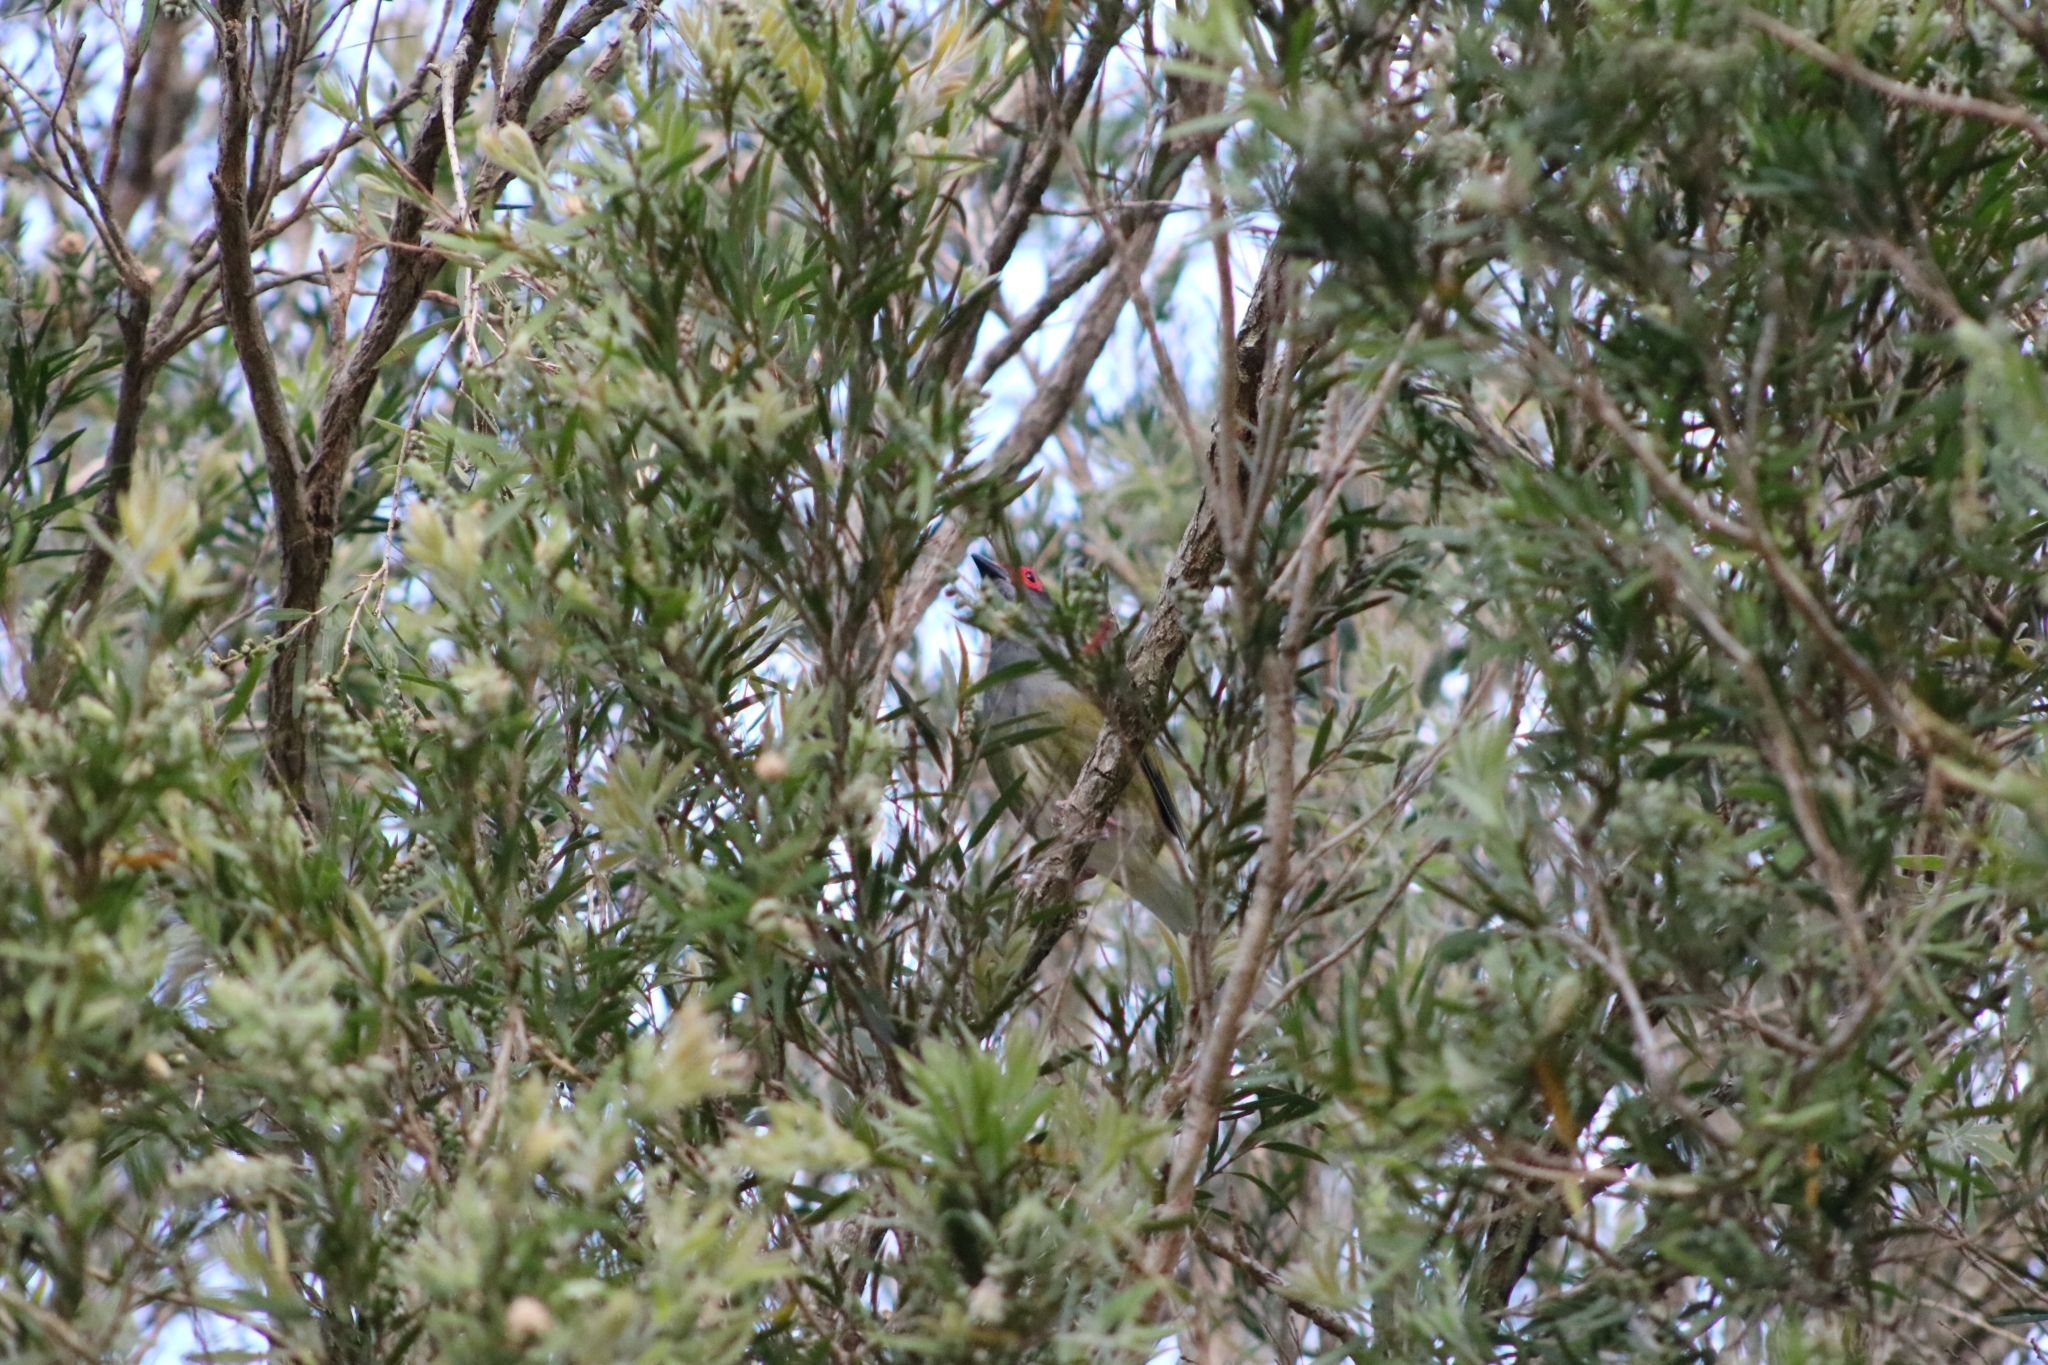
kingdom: Animalia
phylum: Chordata
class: Aves
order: Passeriformes
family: Oriolidae
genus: Sphecotheres
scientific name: Sphecotheres vieilloti
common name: Australasian figbird
